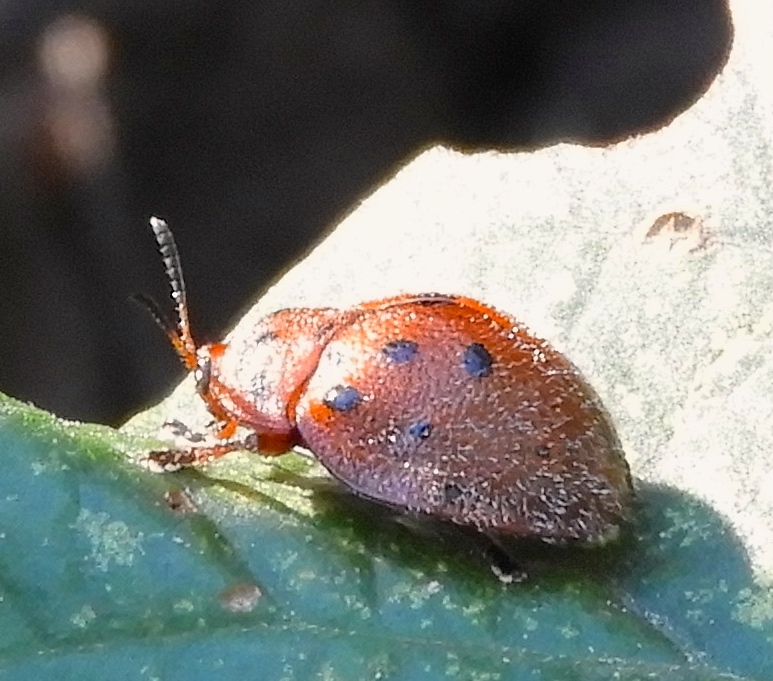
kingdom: Animalia
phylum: Arthropoda
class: Insecta
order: Coleoptera
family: Chrysomelidae
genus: Chelymorpha
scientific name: Chelymorpha
